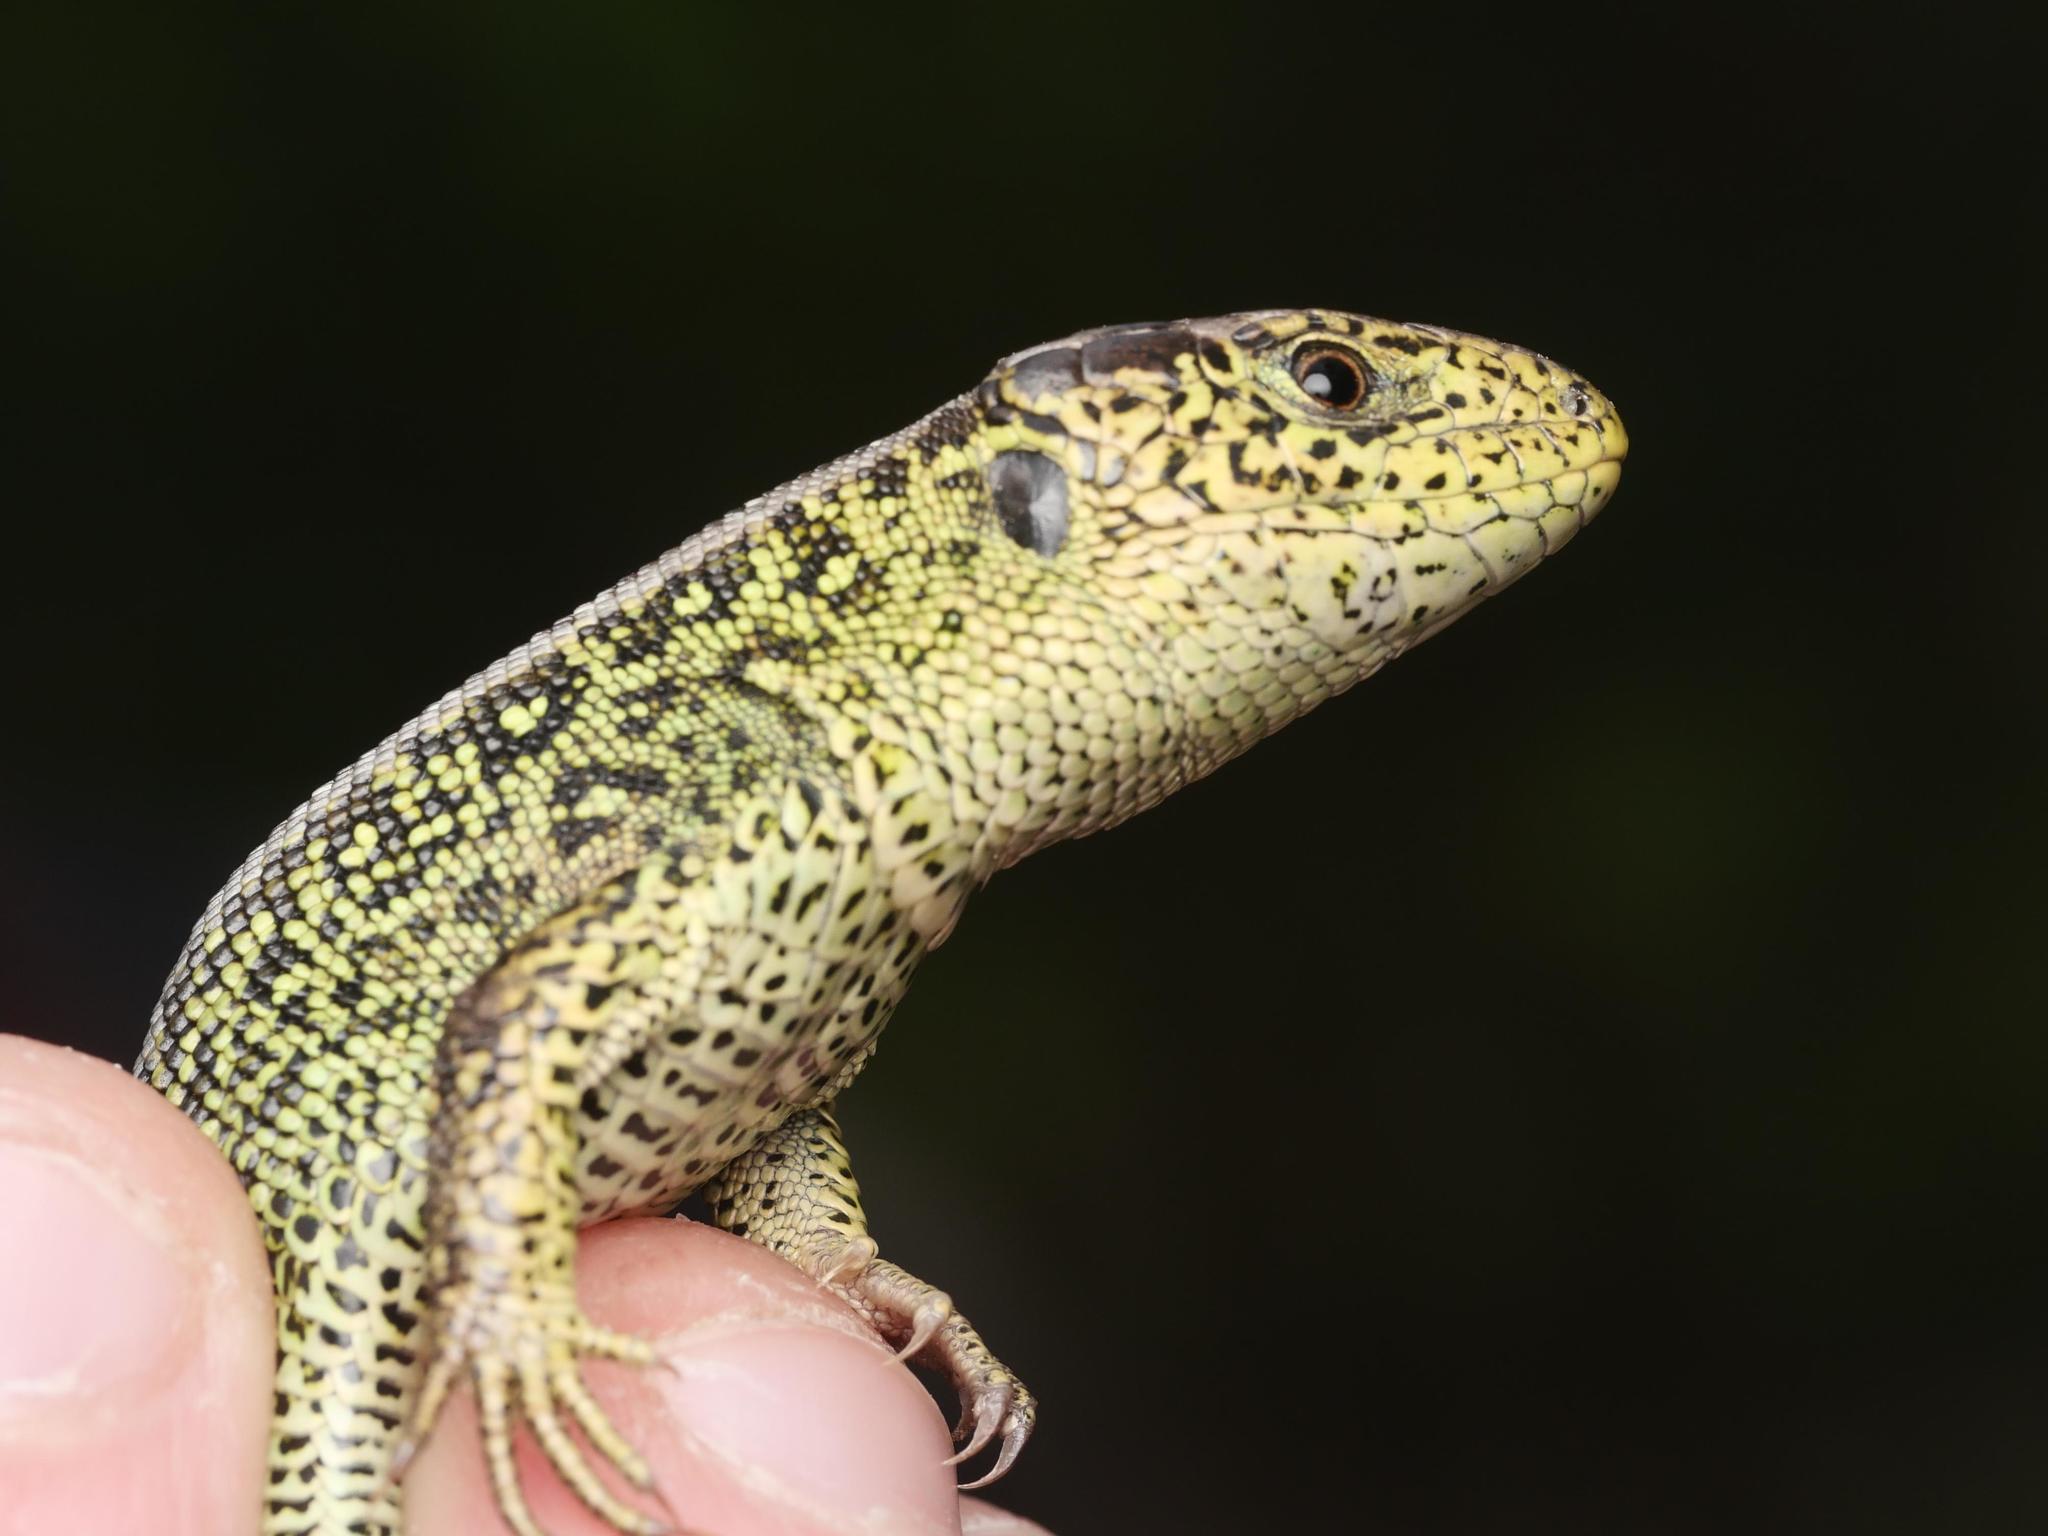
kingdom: Animalia
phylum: Chordata
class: Squamata
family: Lacertidae
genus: Lacerta
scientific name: Lacerta agilis
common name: Sand lizard
